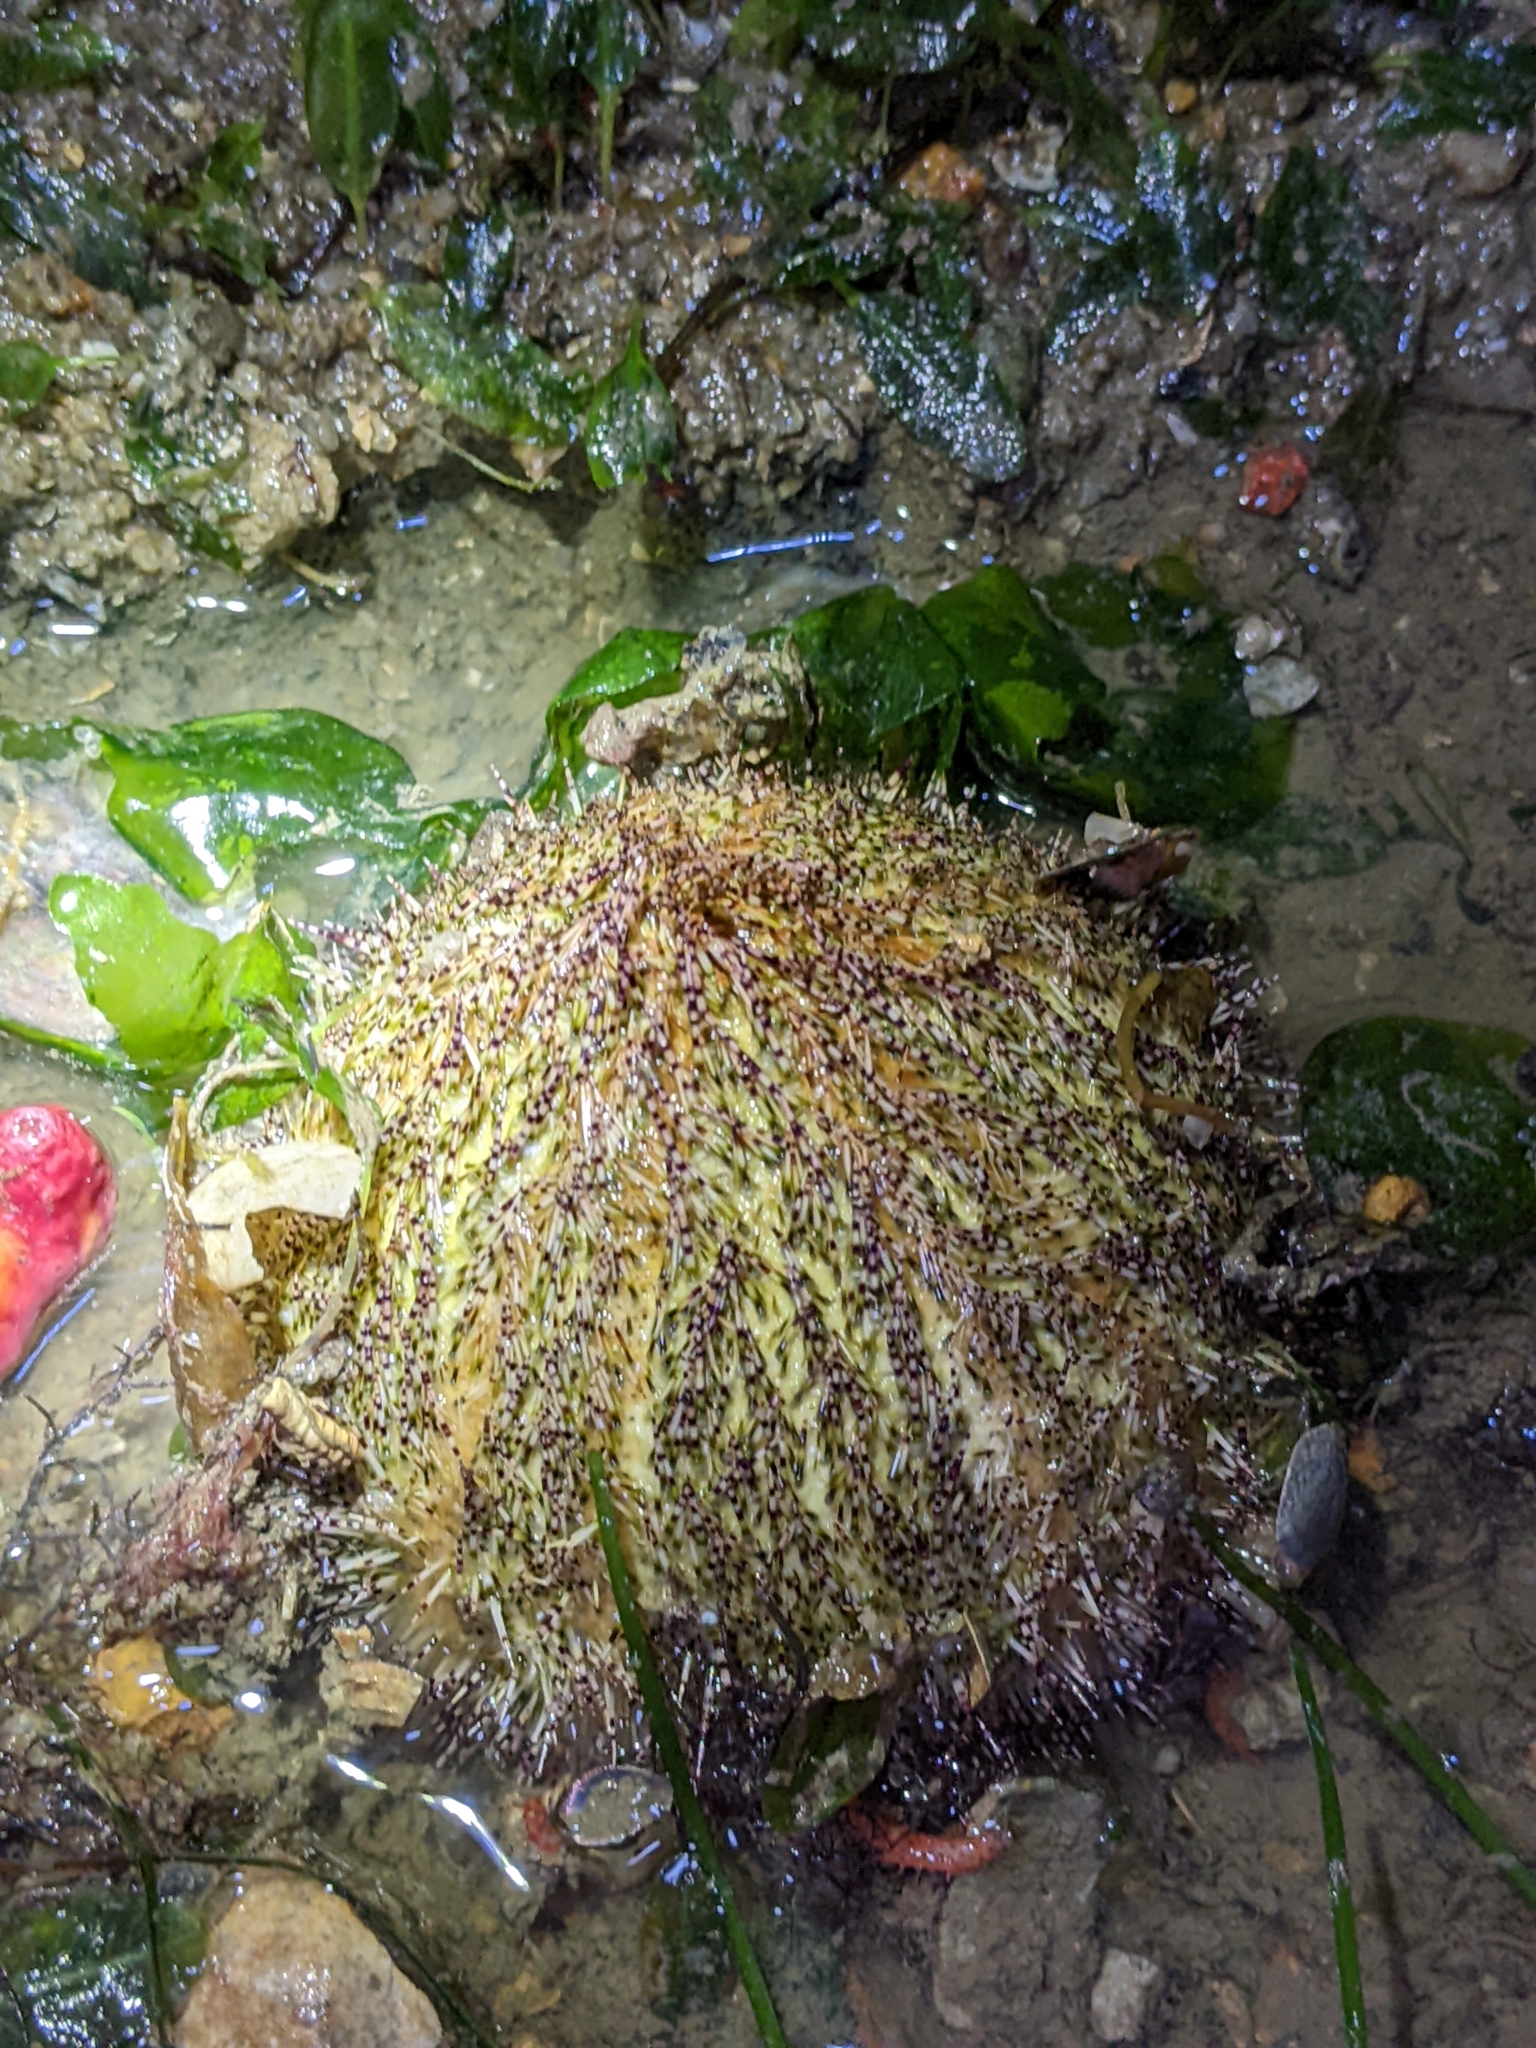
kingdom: Animalia
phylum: Echinodermata
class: Echinoidea
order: Camarodonta
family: Temnopleuridae
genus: Salmacis
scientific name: Salmacis sphaeroides
